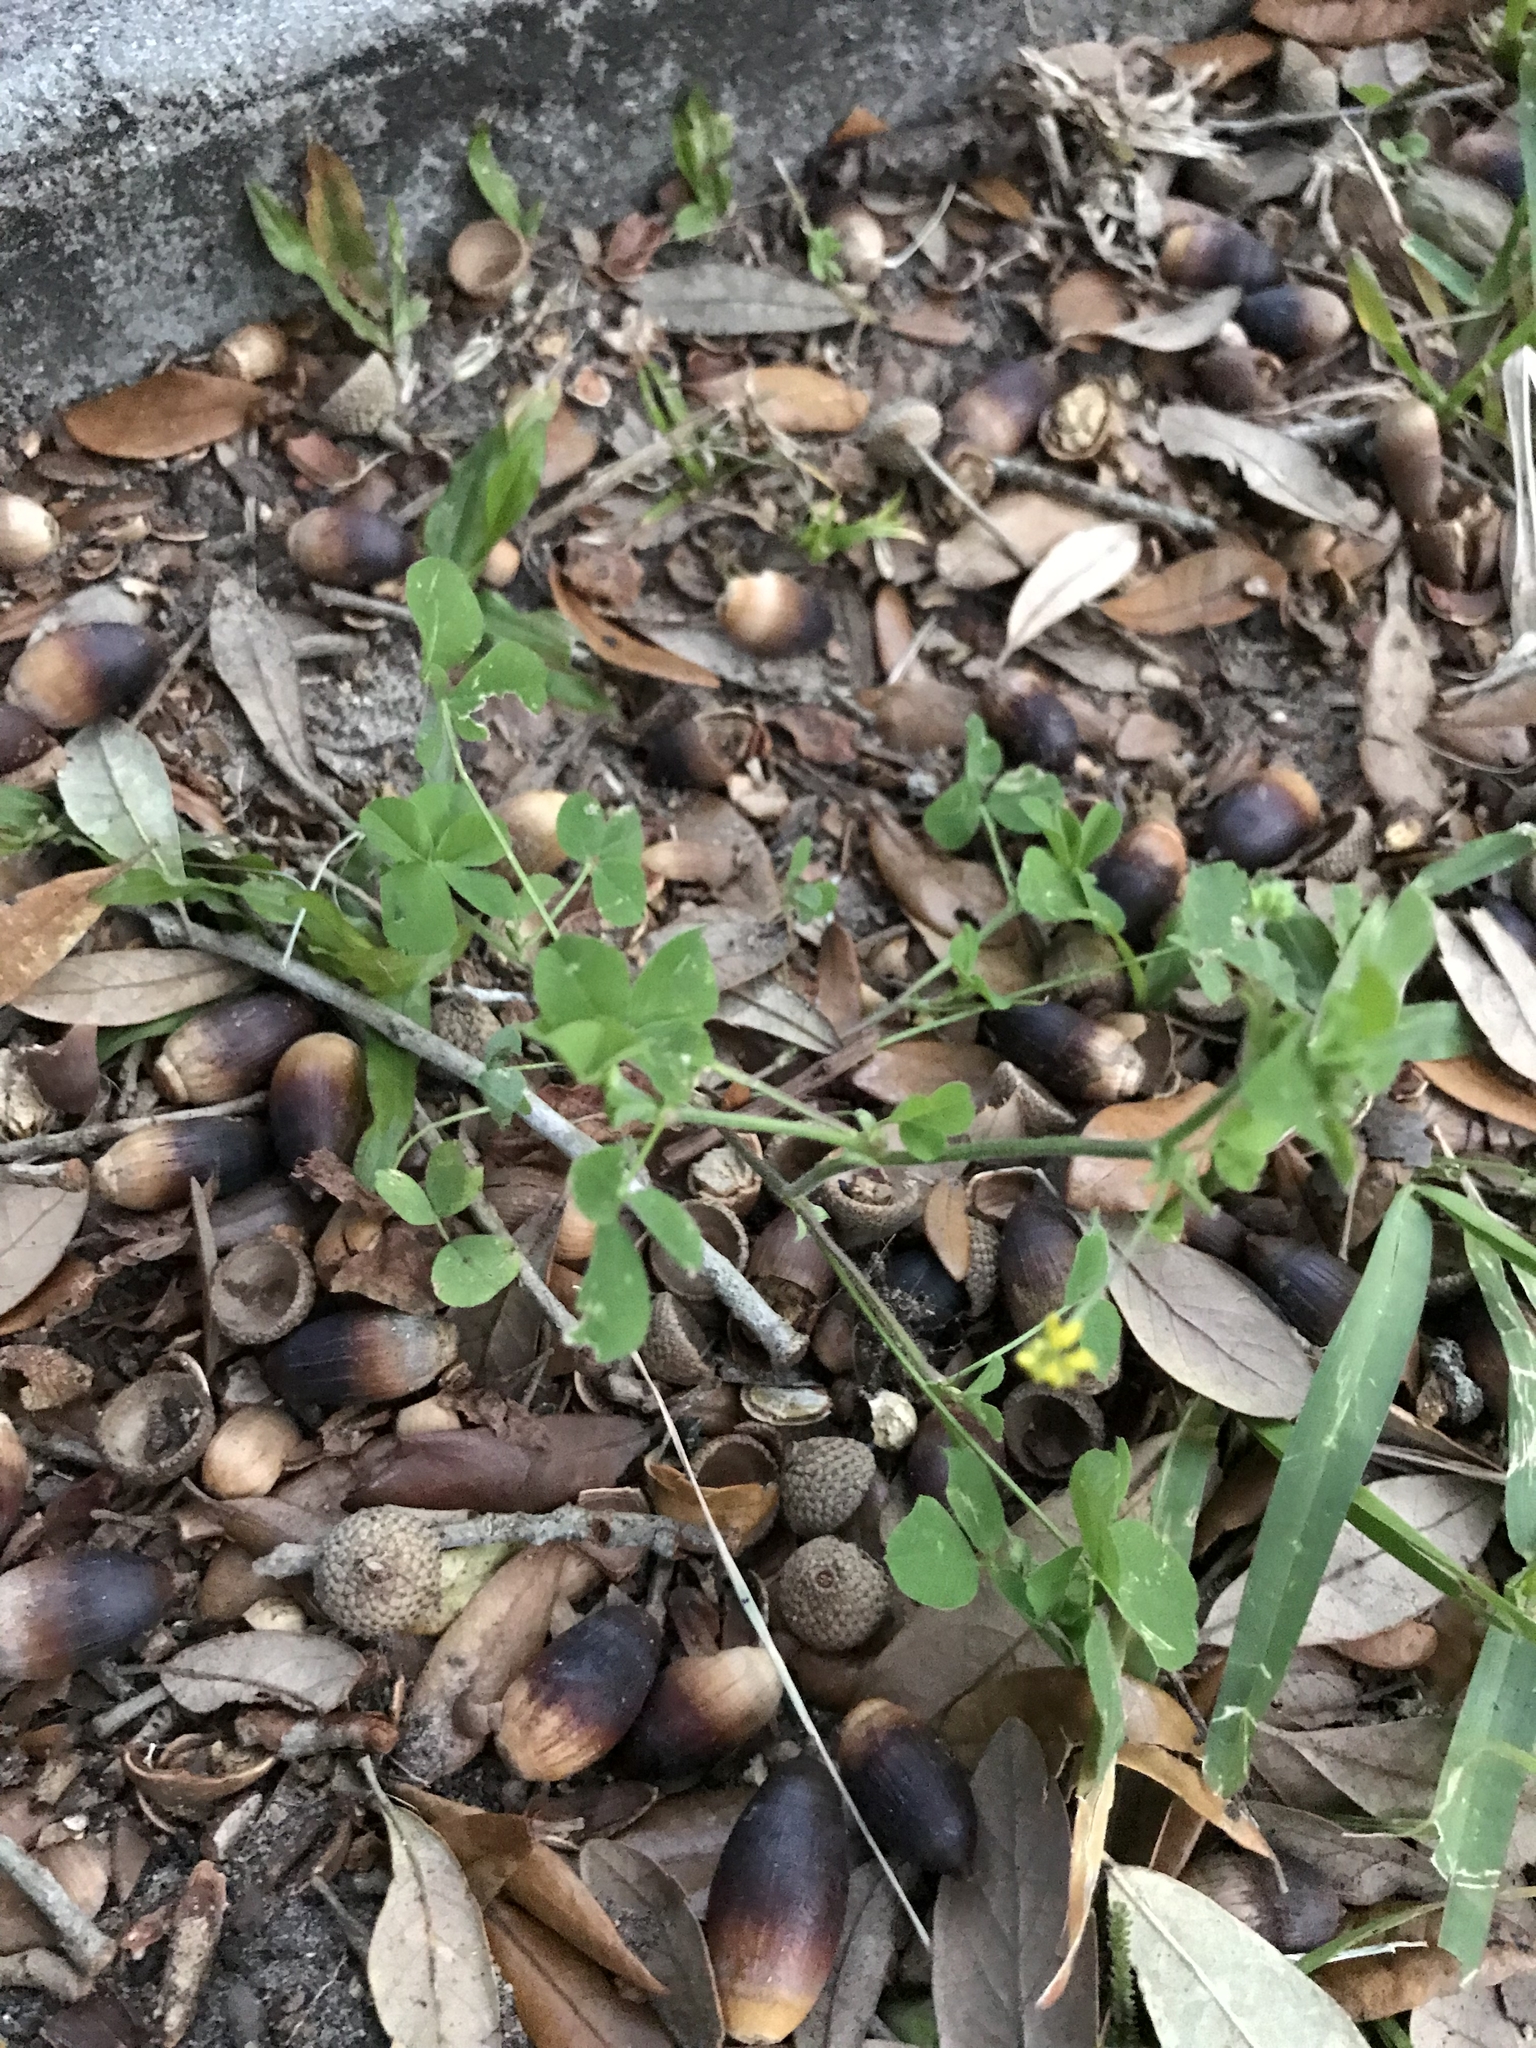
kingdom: Plantae
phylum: Tracheophyta
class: Magnoliopsida
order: Fabales
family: Fabaceae
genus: Medicago
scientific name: Medicago lupulina
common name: Black medick
